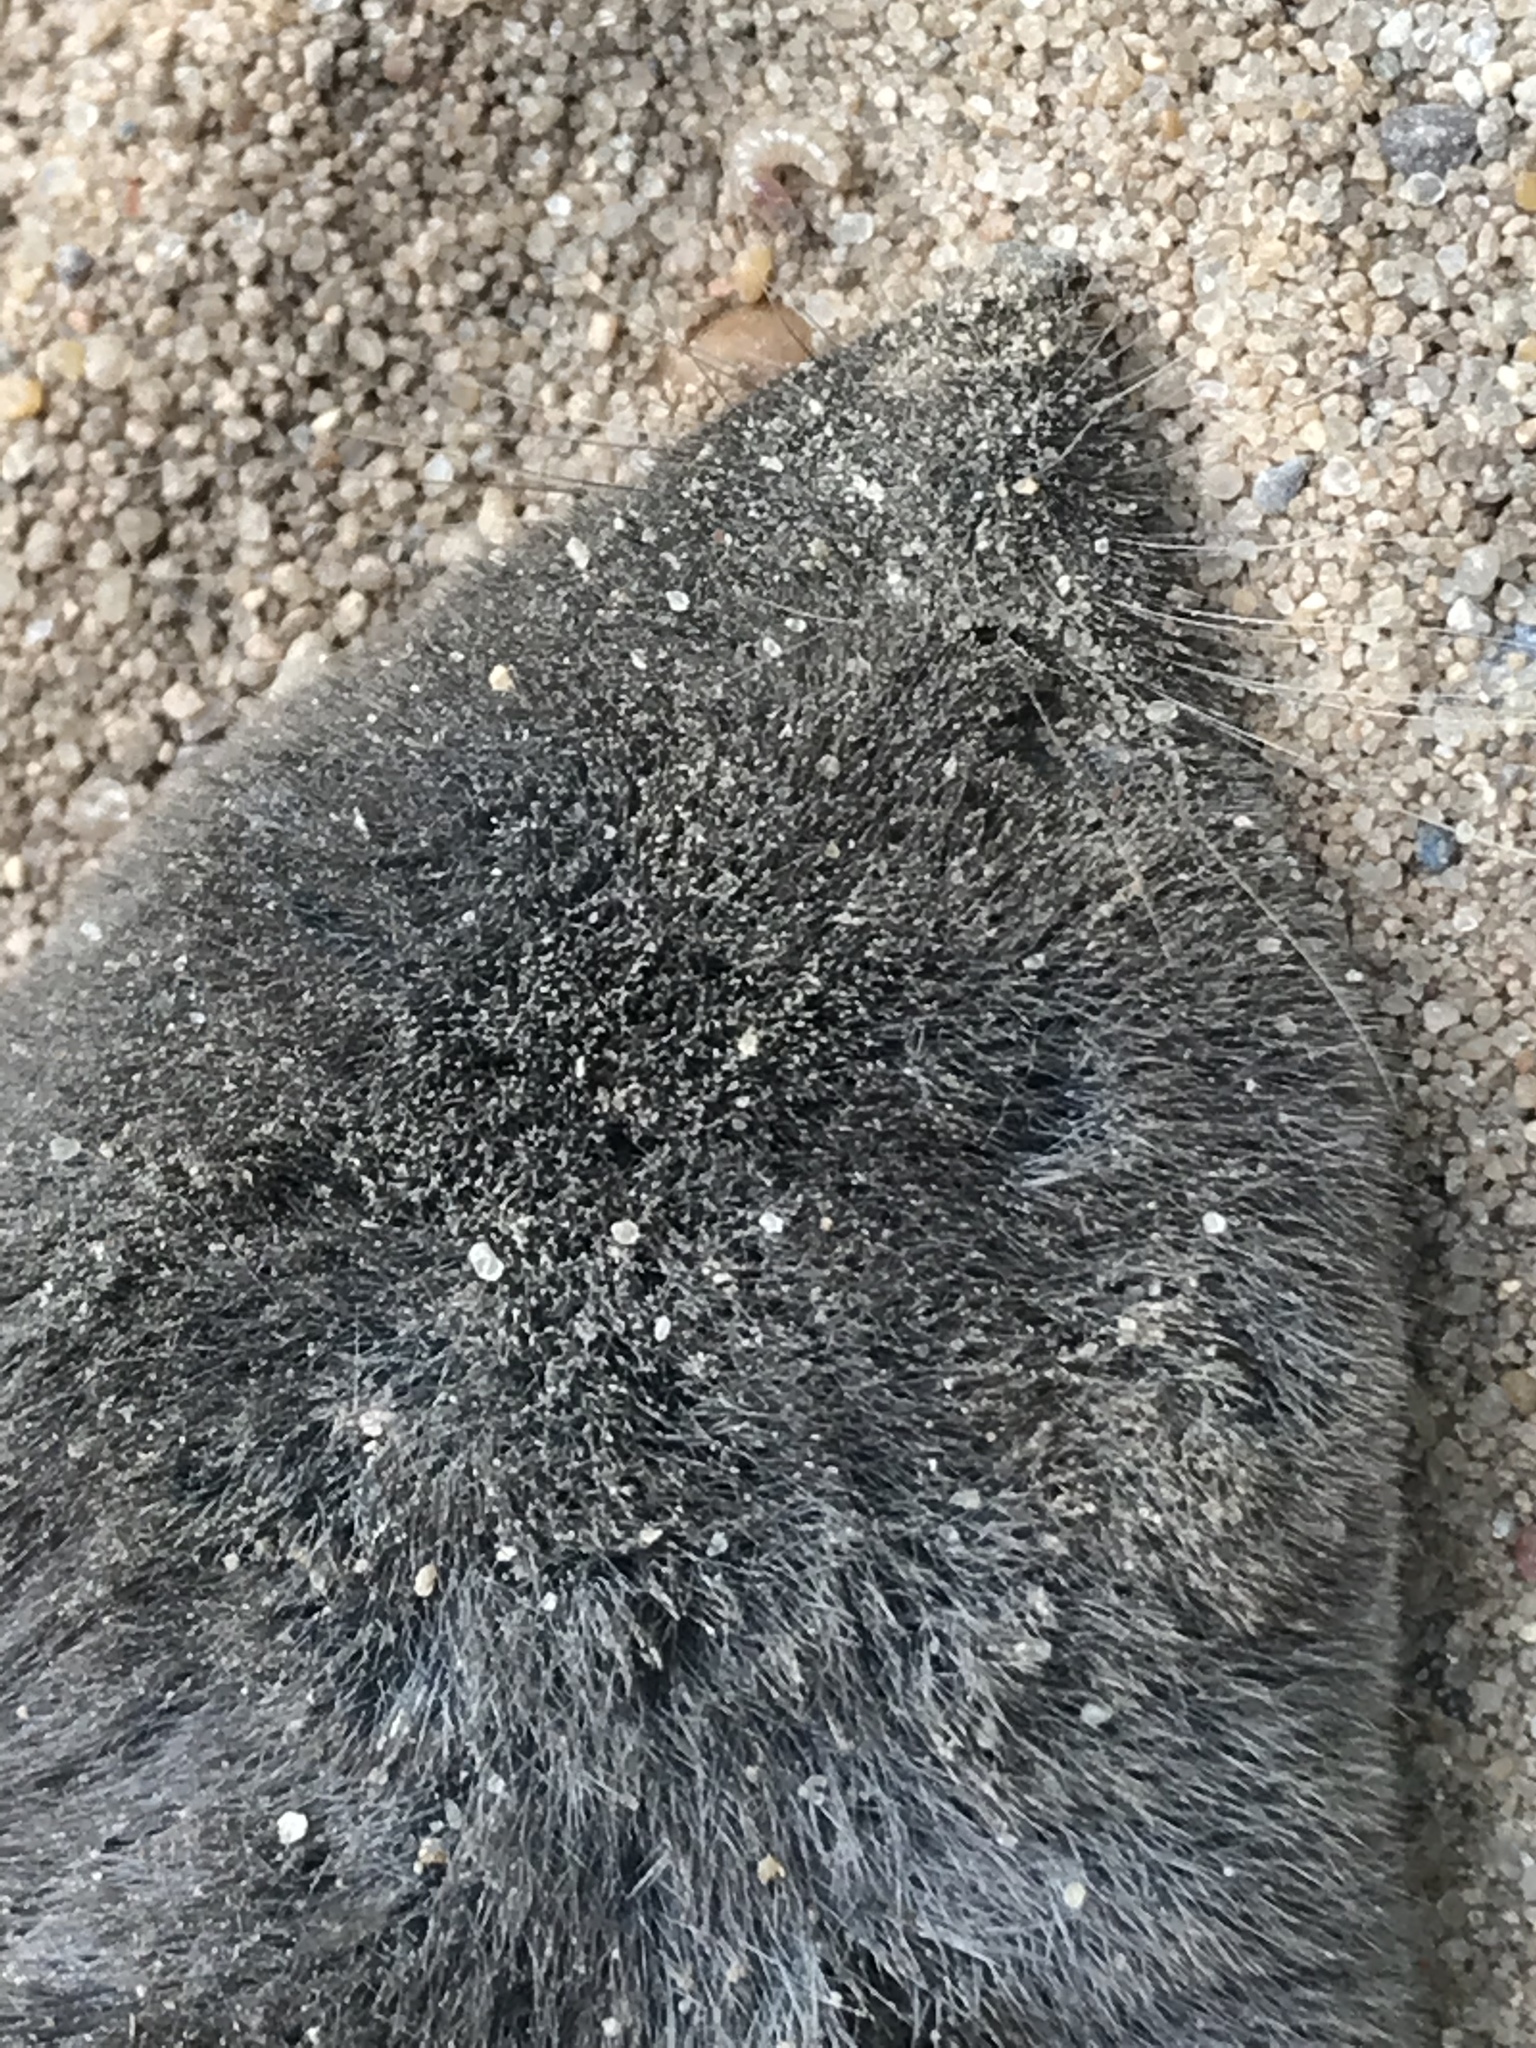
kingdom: Animalia
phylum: Chordata
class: Mammalia
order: Soricomorpha
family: Soricidae
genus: Blarina
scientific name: Blarina brevicauda
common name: Northern short-tailed shrew
